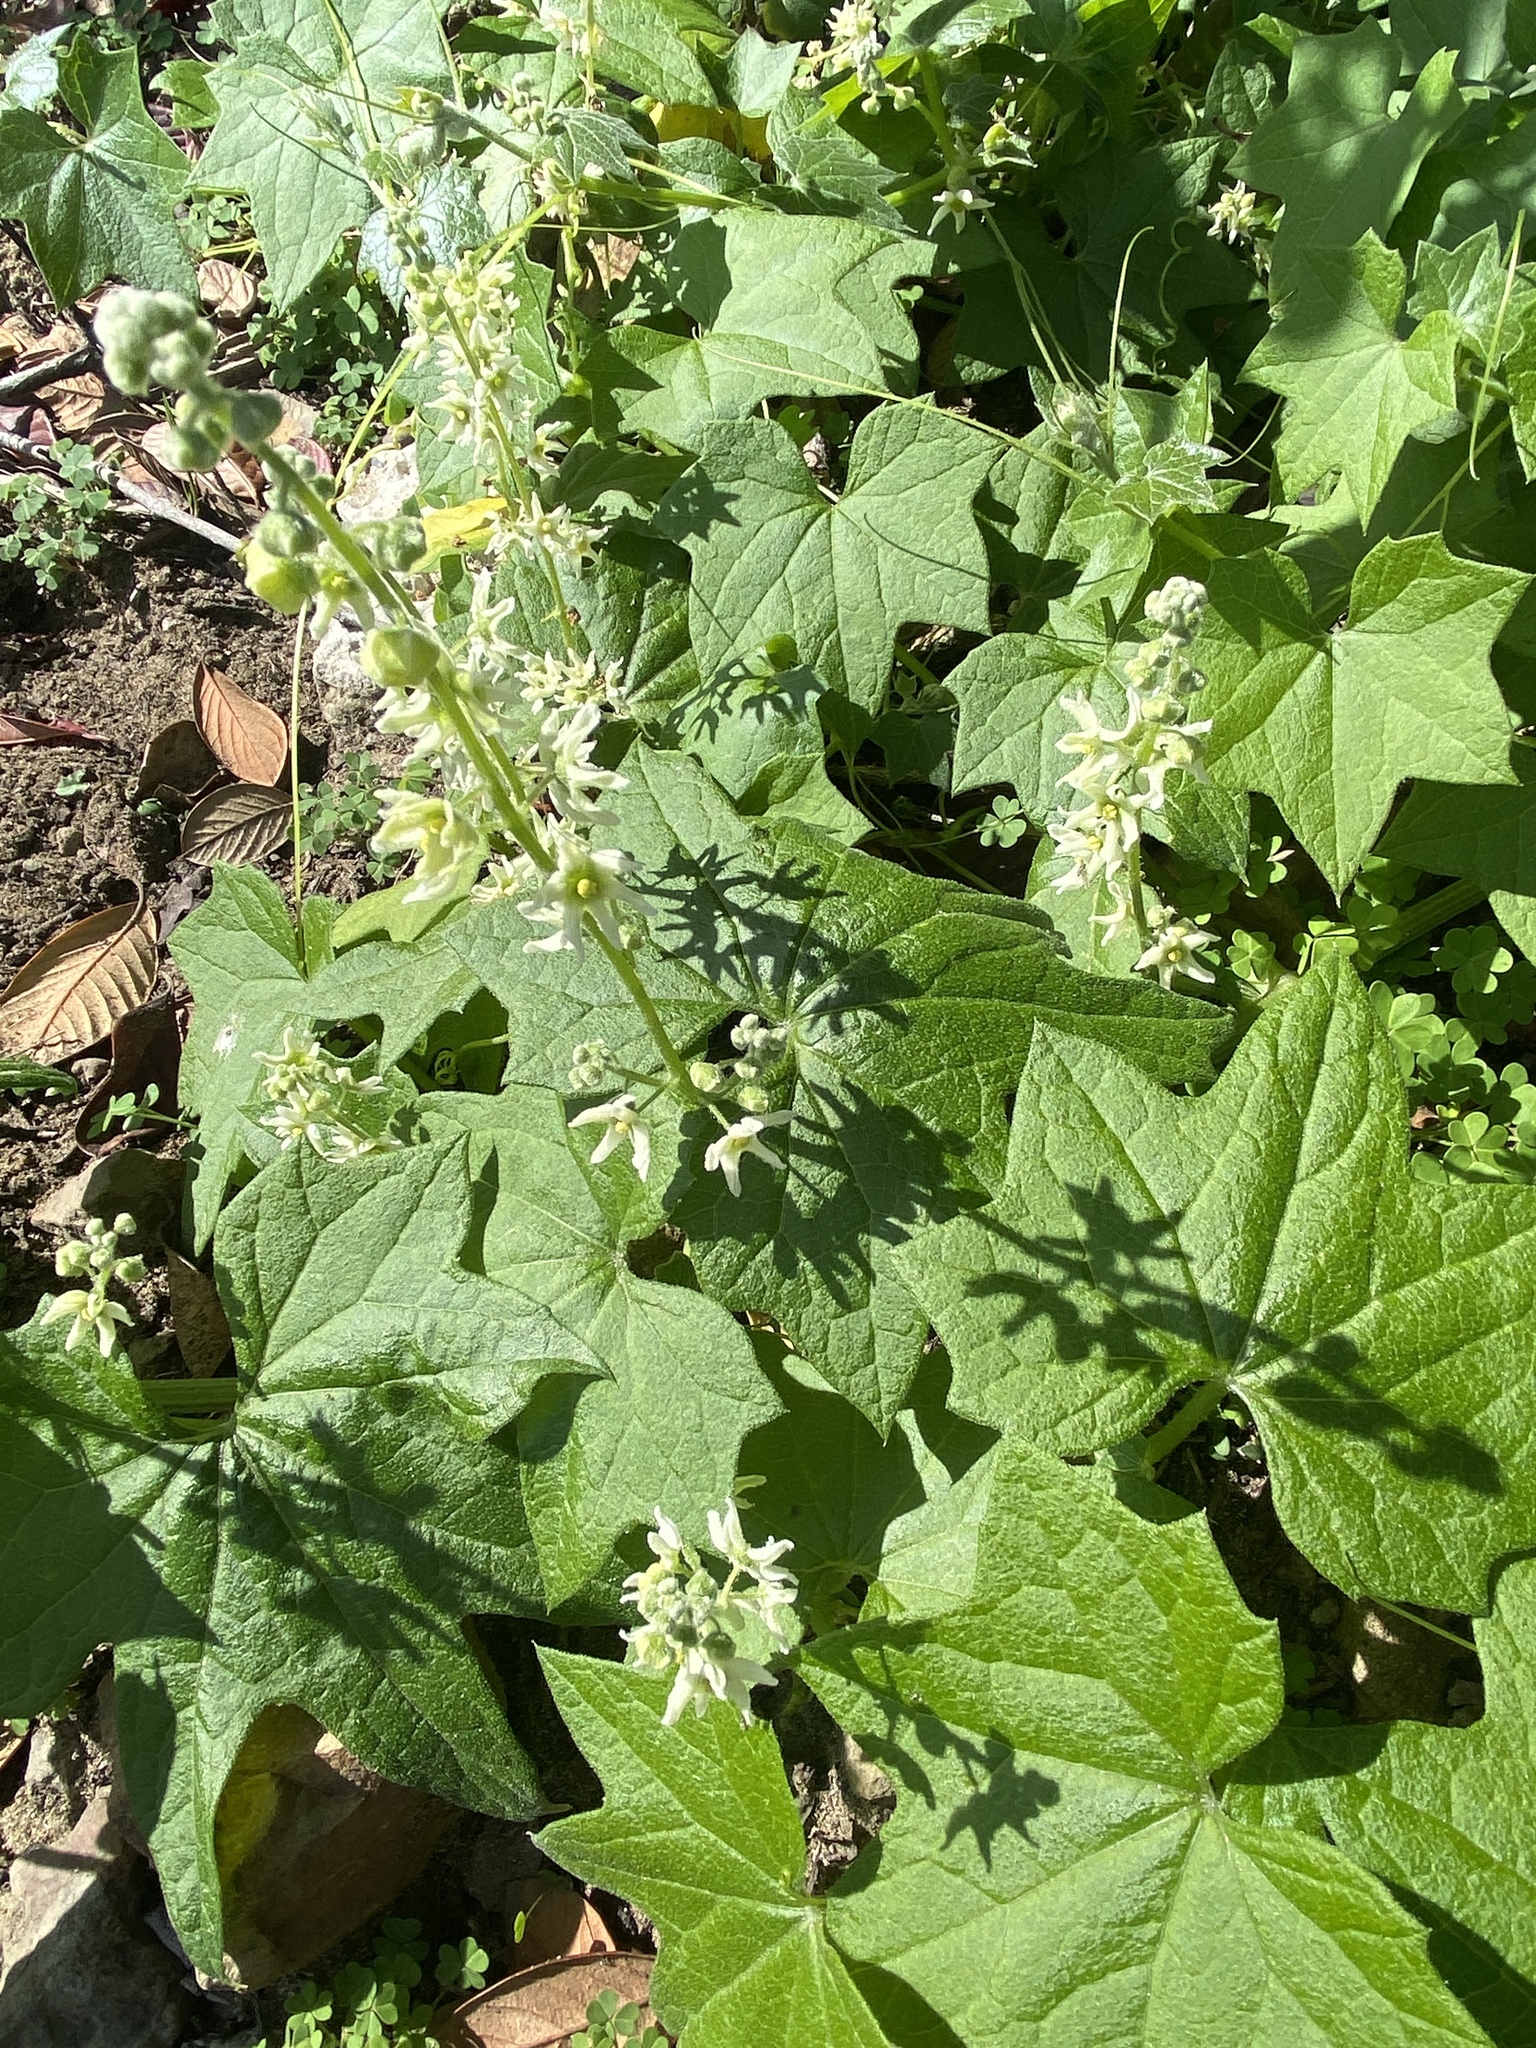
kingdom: Plantae
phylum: Tracheophyta
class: Magnoliopsida
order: Cucurbitales
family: Cucurbitaceae
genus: Marah
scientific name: Marah fabacea
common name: California manroot
